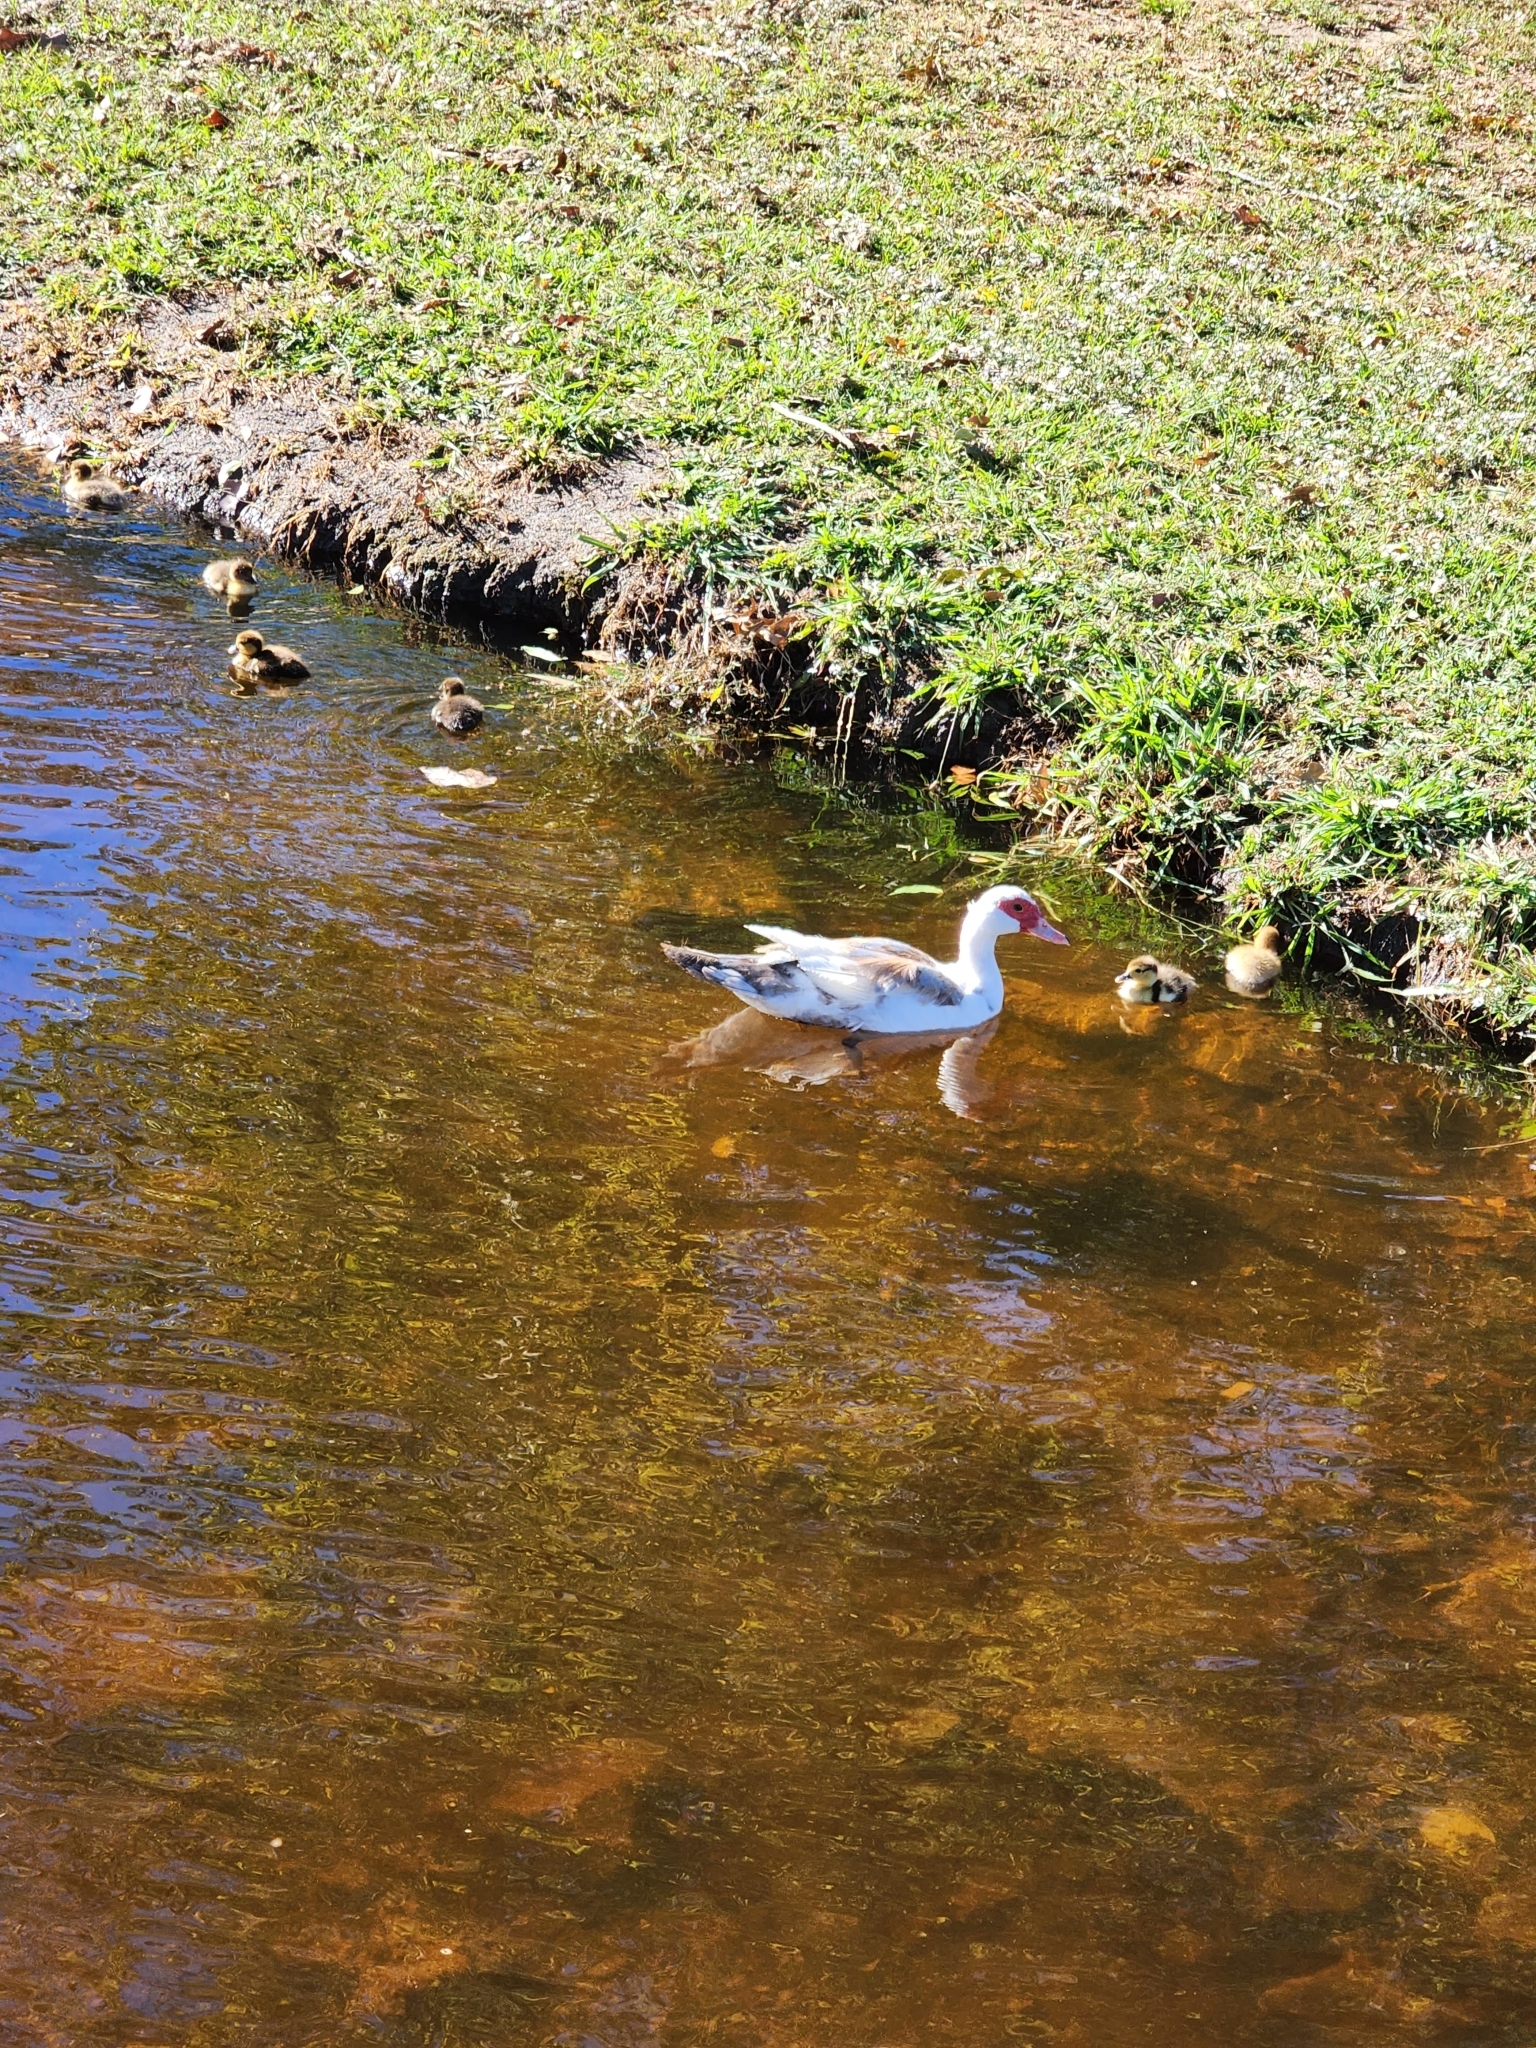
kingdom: Animalia
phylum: Chordata
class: Aves
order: Anseriformes
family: Anatidae
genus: Cairina
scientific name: Cairina moschata
